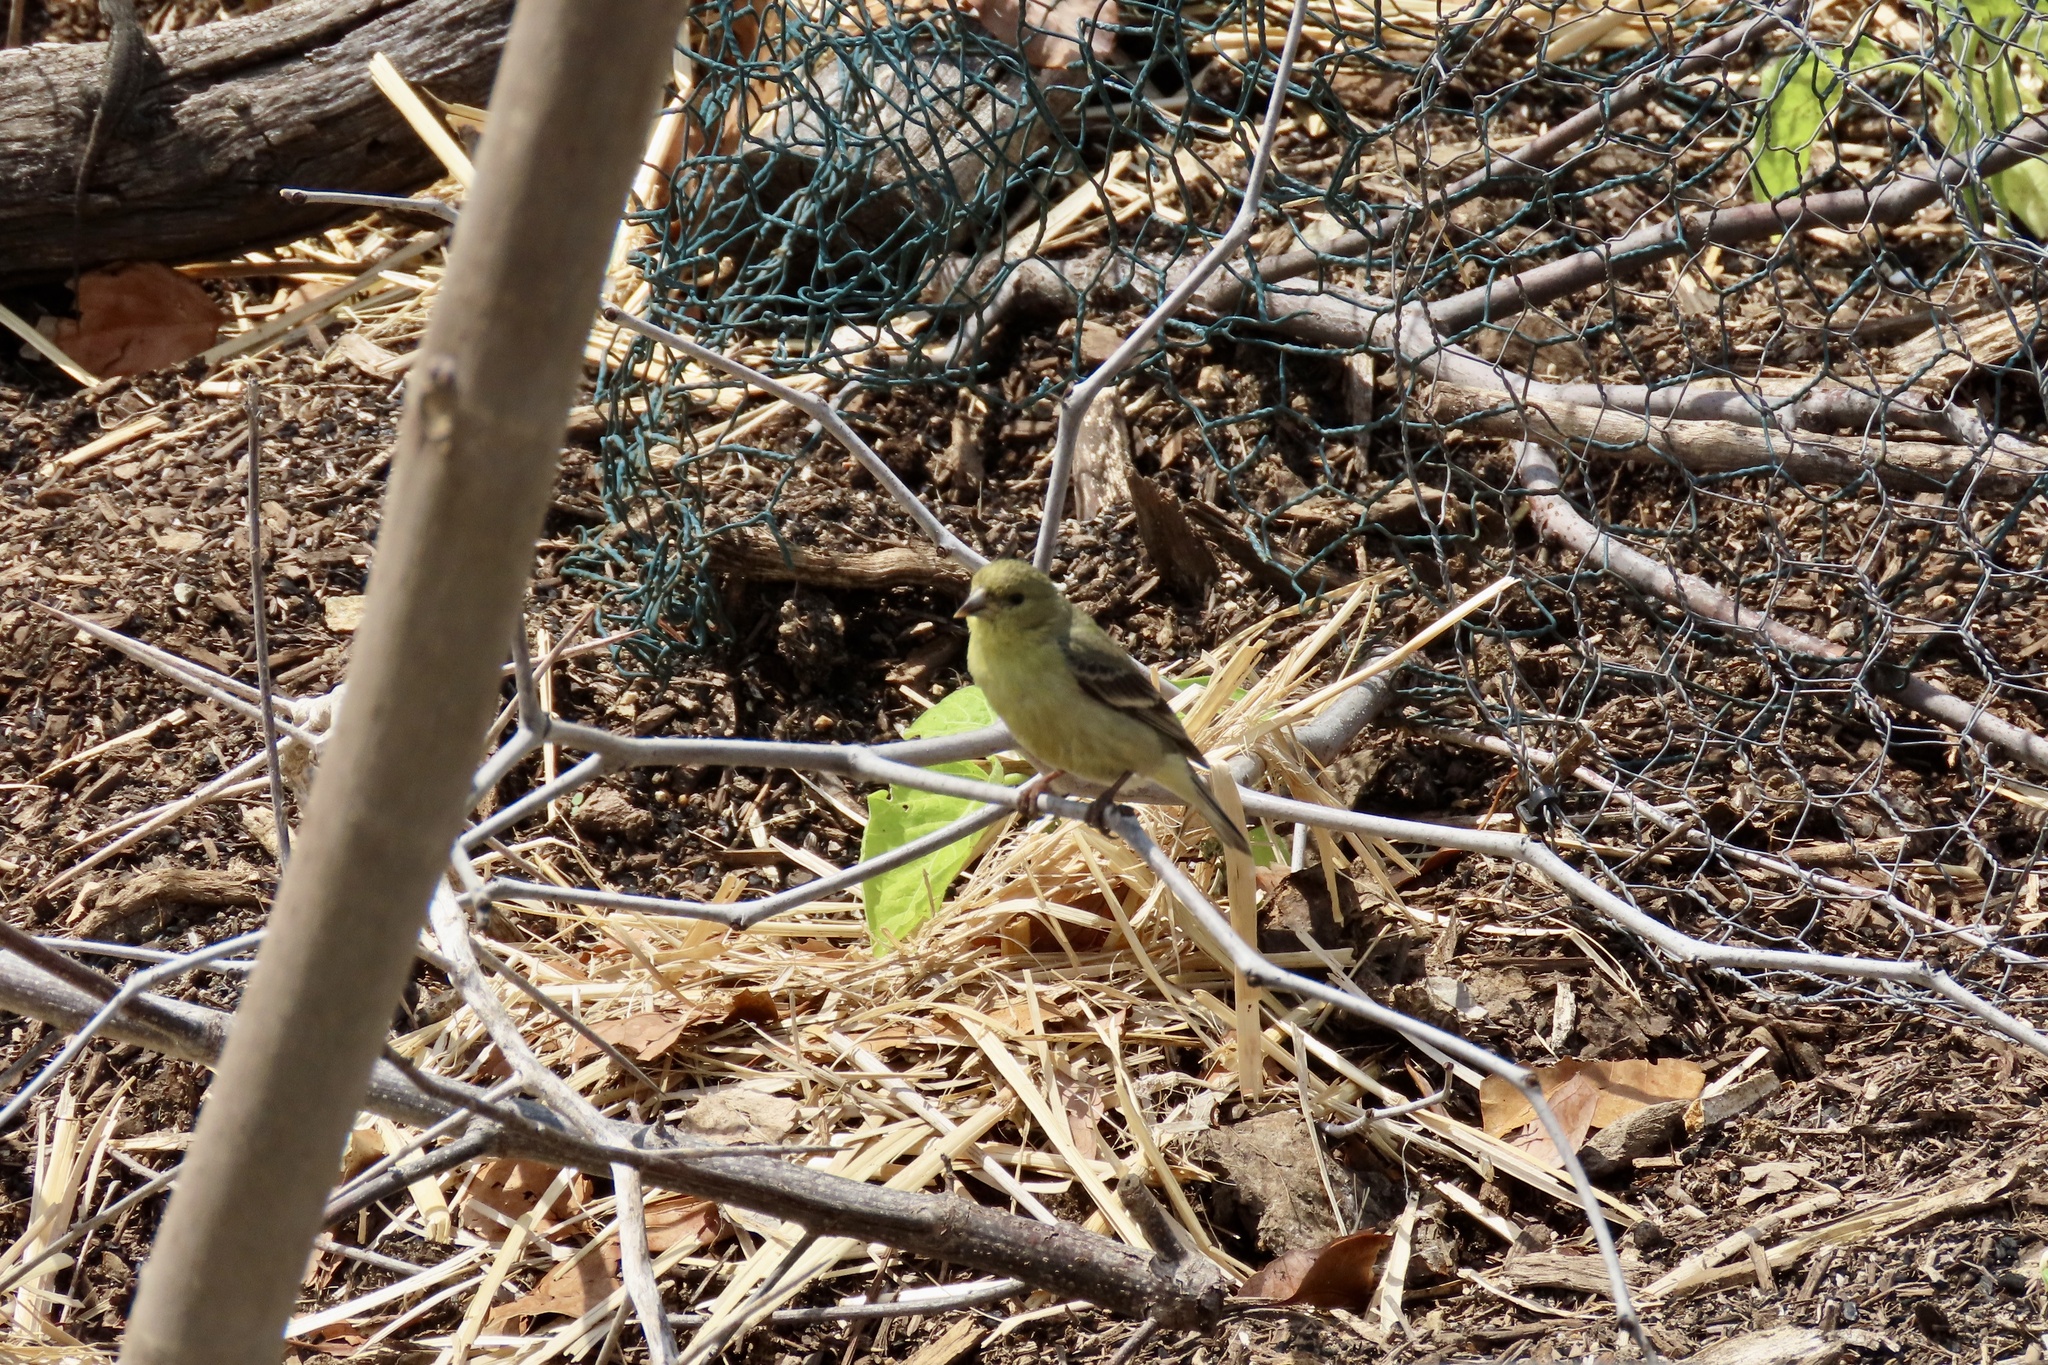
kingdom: Animalia
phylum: Chordata
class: Aves
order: Passeriformes
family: Fringillidae
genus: Spinus
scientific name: Spinus psaltria
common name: Lesser goldfinch
